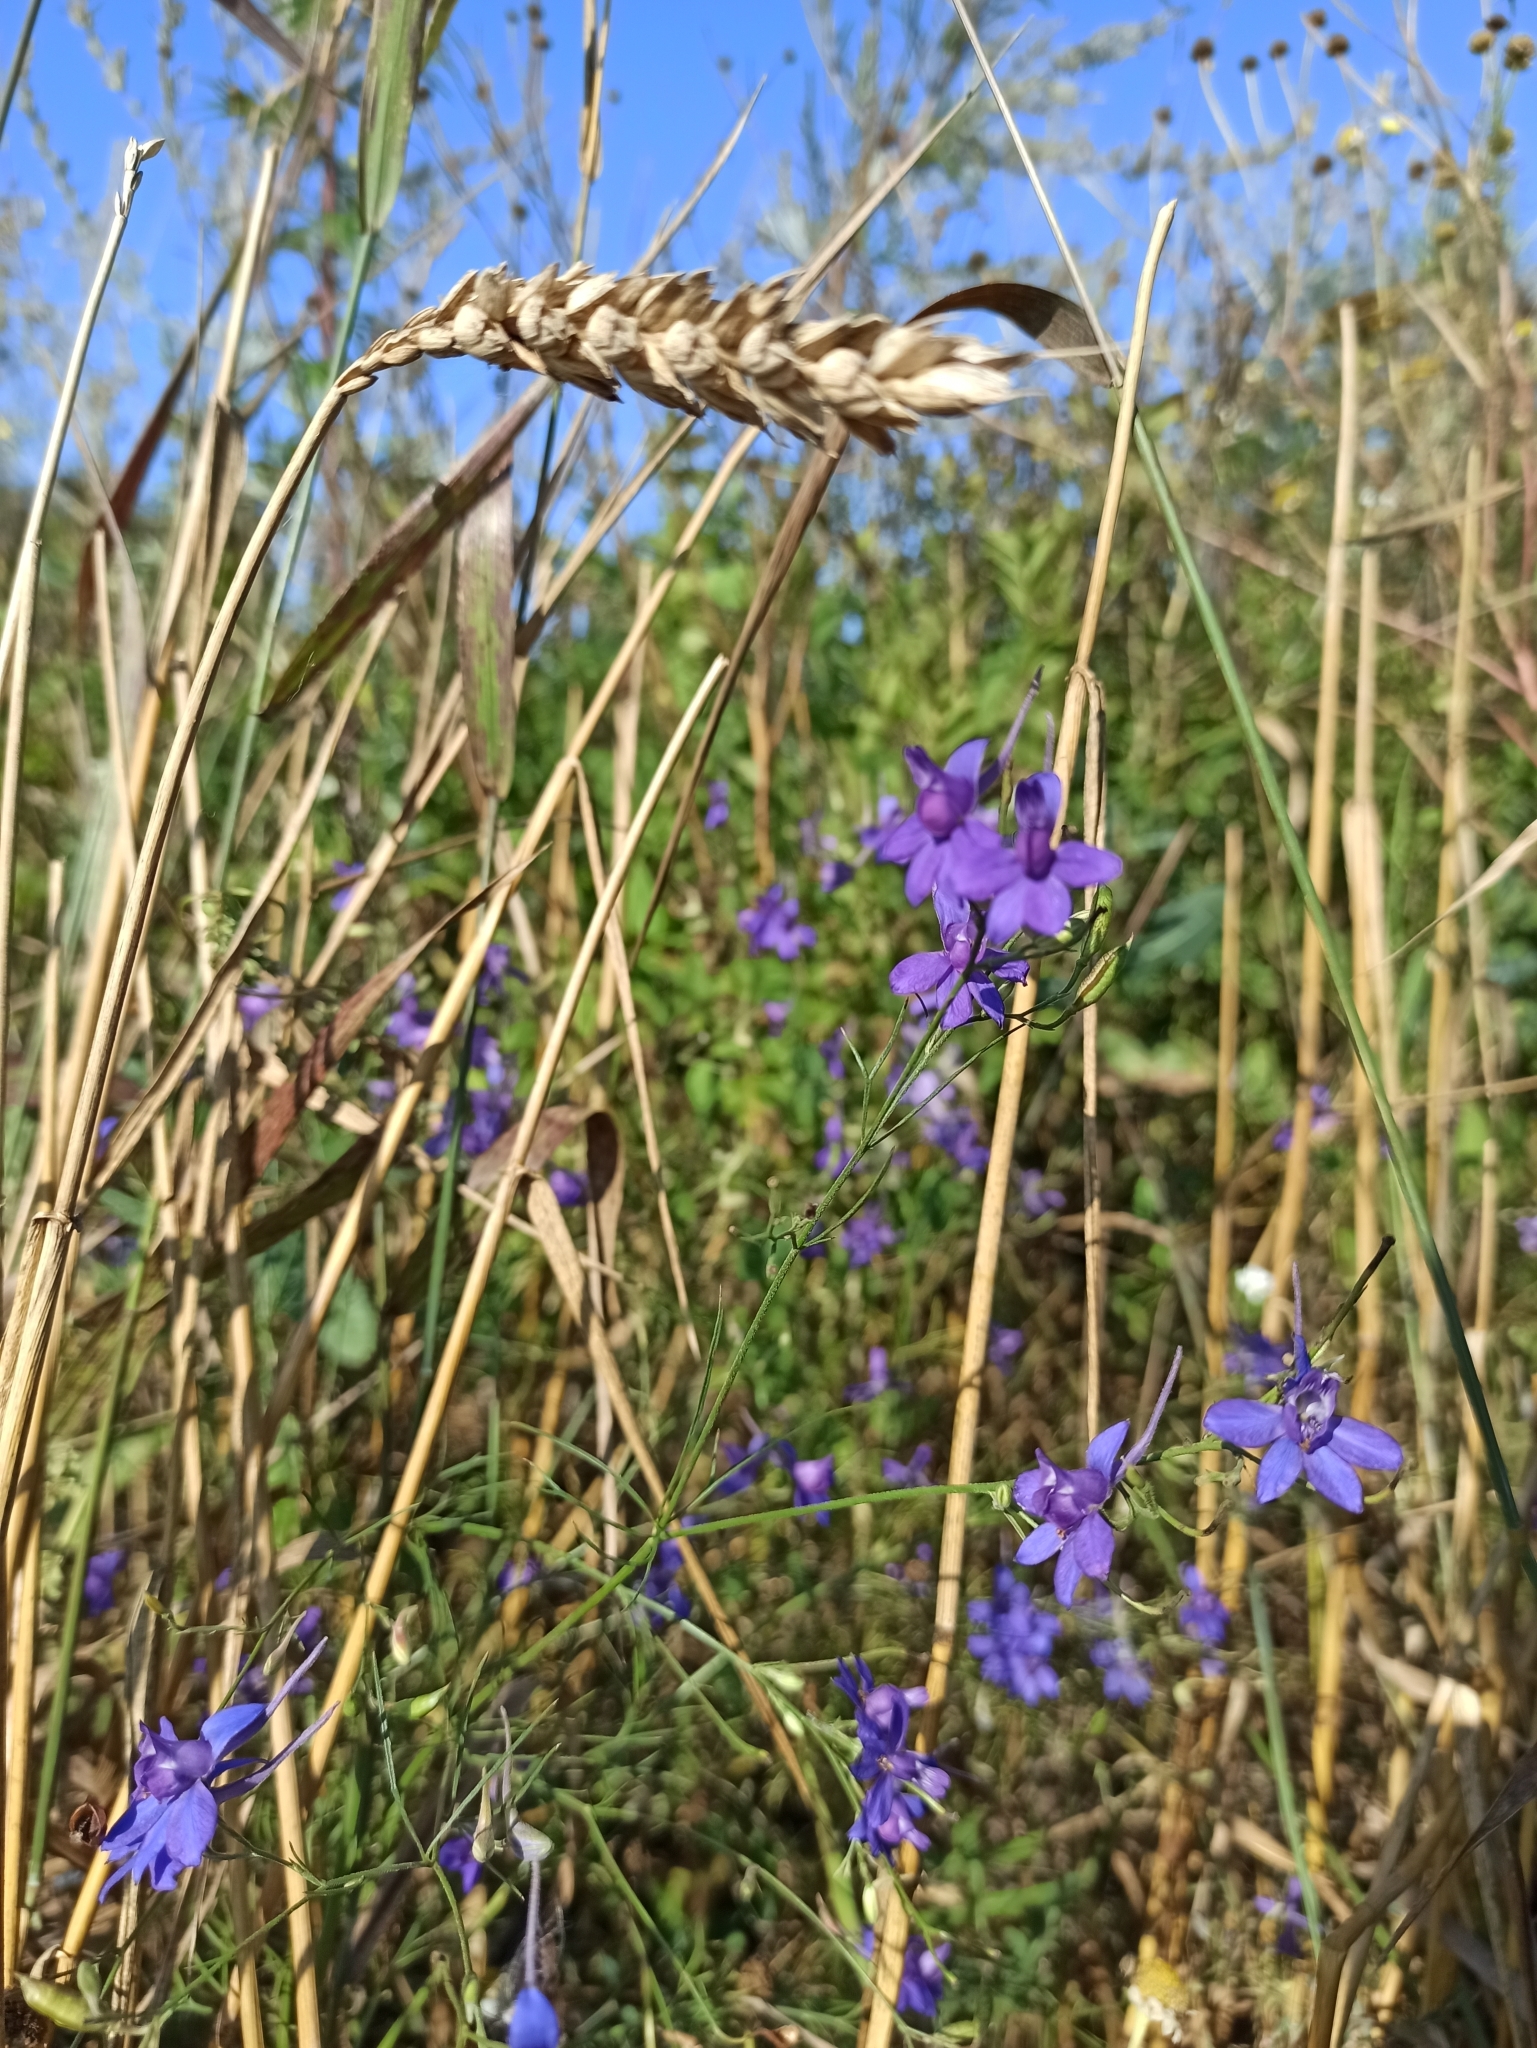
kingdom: Plantae
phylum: Tracheophyta
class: Magnoliopsida
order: Ranunculales
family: Ranunculaceae
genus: Delphinium
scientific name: Delphinium consolida
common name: Branching larkspur
